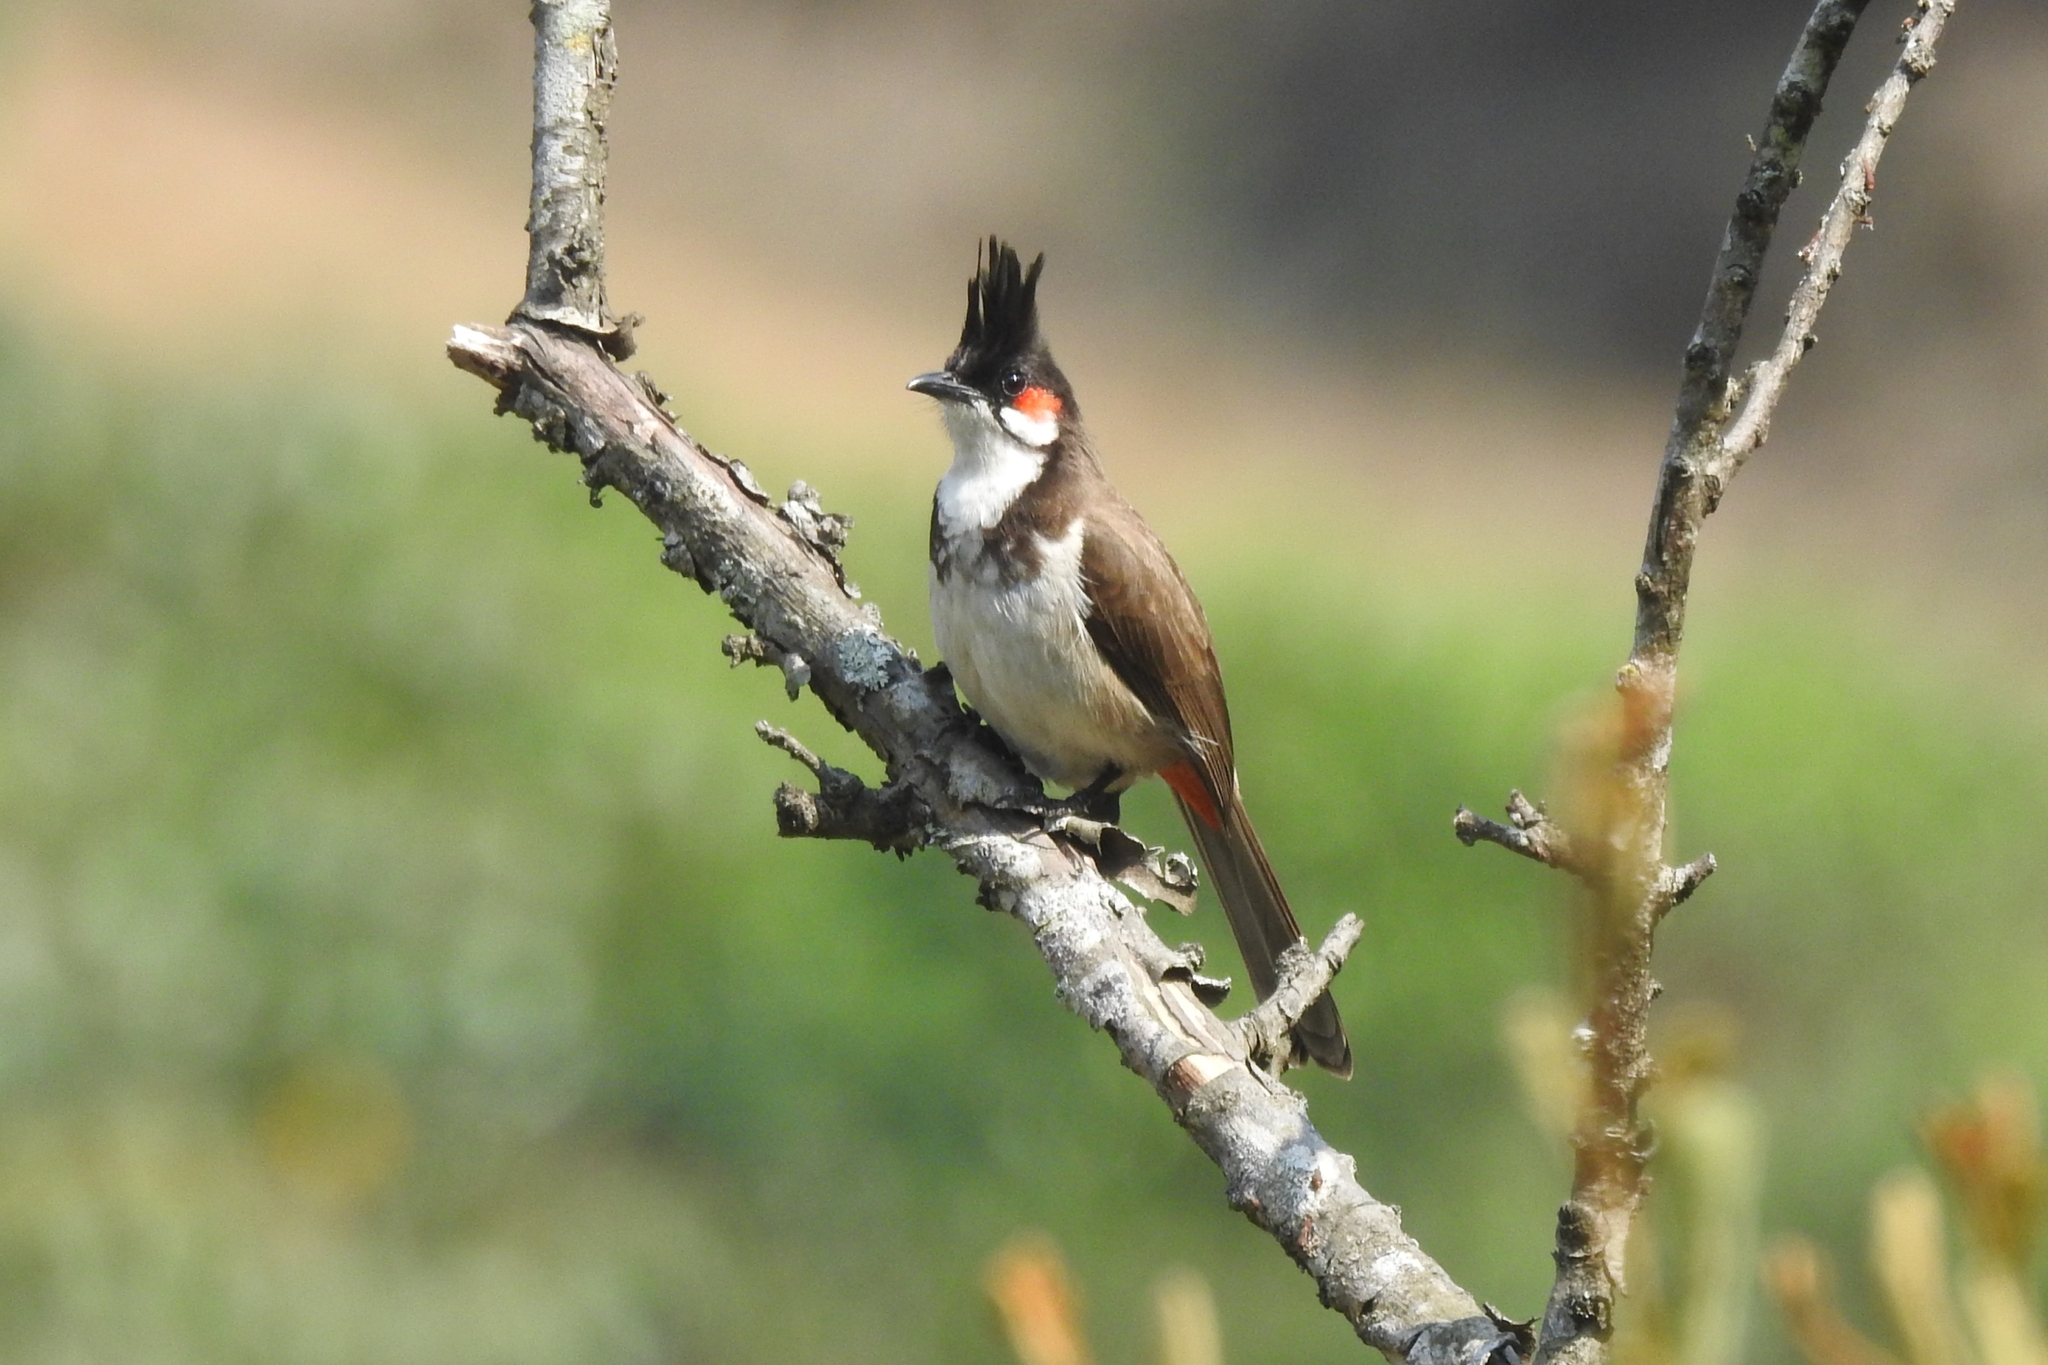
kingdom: Animalia
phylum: Chordata
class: Aves
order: Passeriformes
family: Pycnonotidae
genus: Pycnonotus
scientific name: Pycnonotus jocosus
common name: Red-whiskered bulbul
